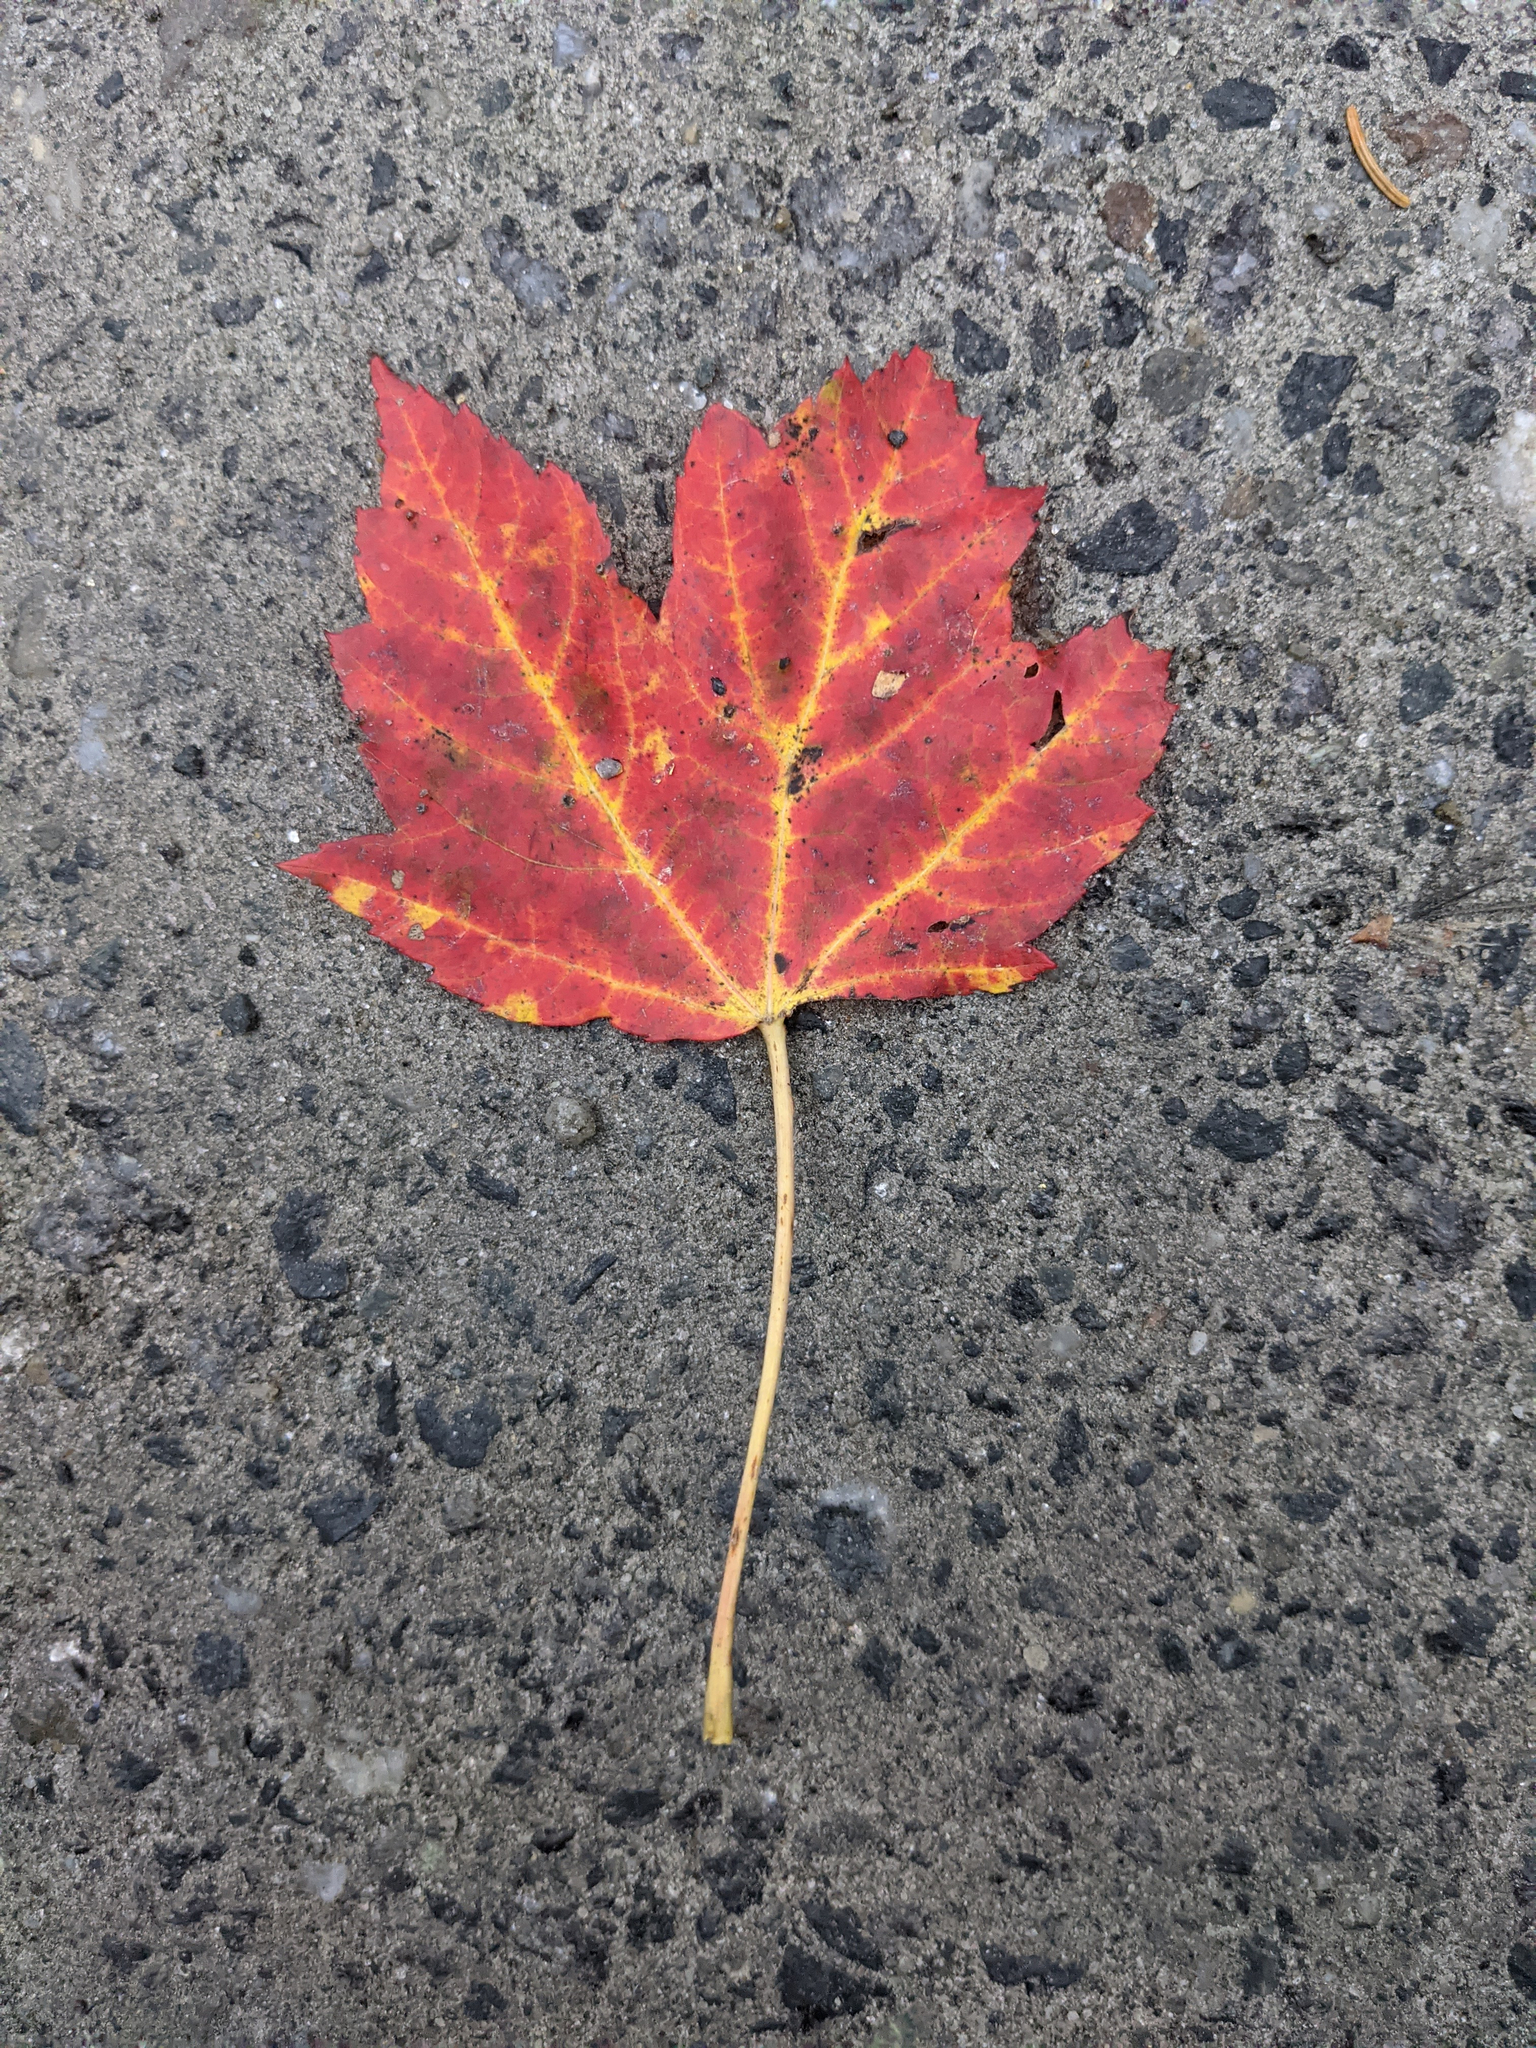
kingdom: Plantae
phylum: Tracheophyta
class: Magnoliopsida
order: Sapindales
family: Sapindaceae
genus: Acer
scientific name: Acer rubrum
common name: Red maple
